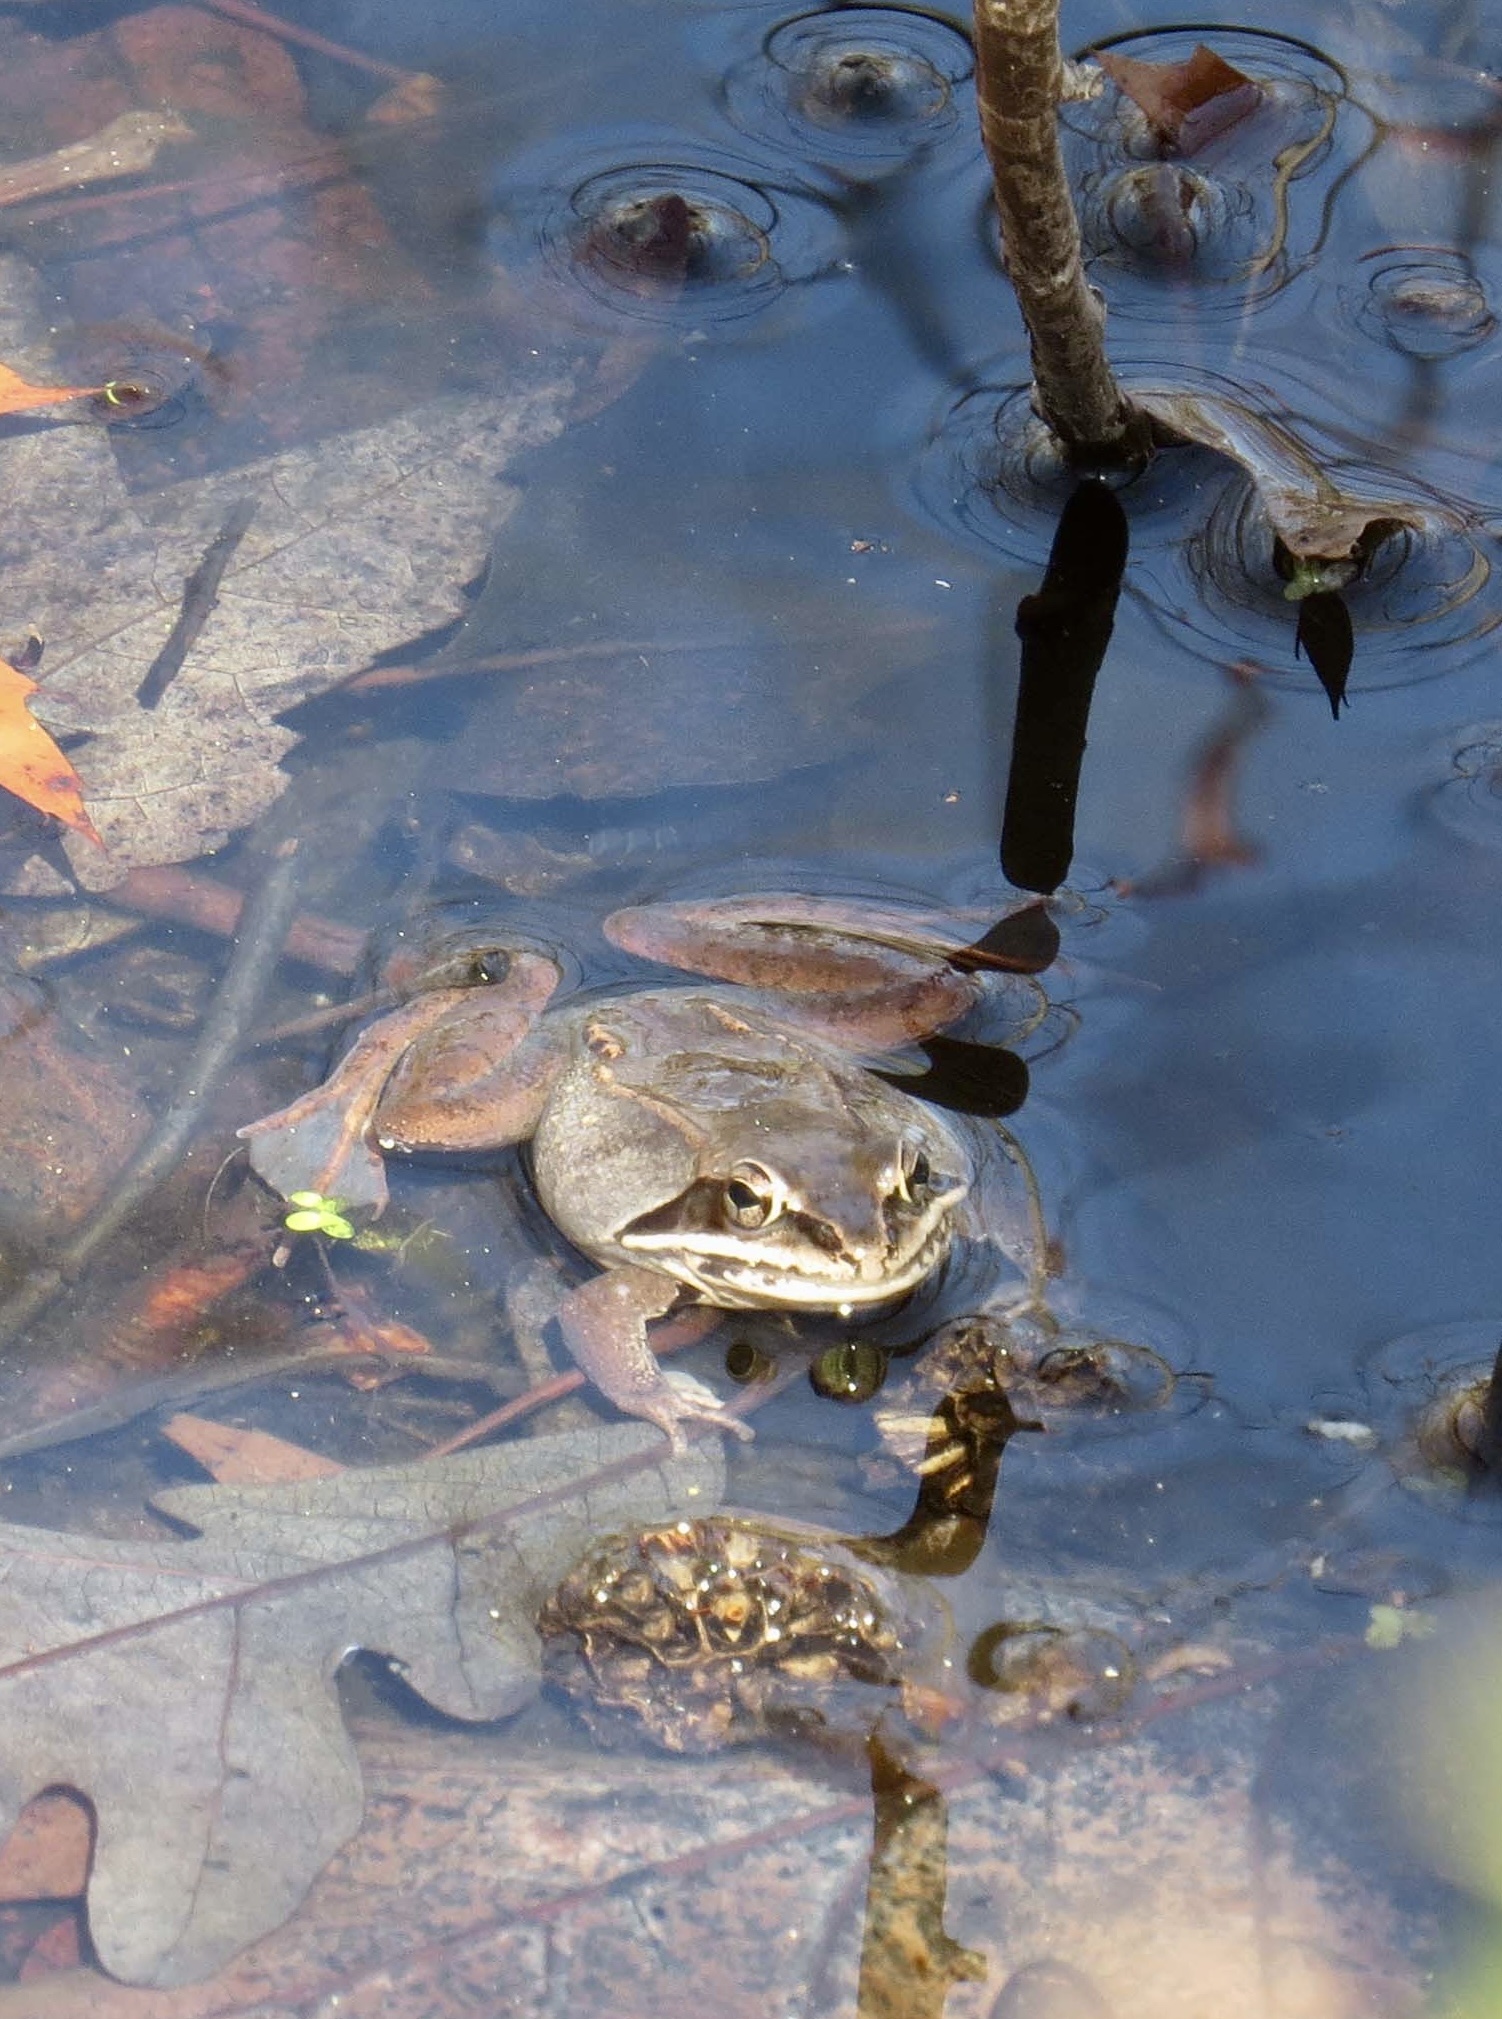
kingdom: Animalia
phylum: Chordata
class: Amphibia
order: Anura
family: Ranidae
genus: Lithobates
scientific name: Lithobates sylvaticus
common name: Wood frog
